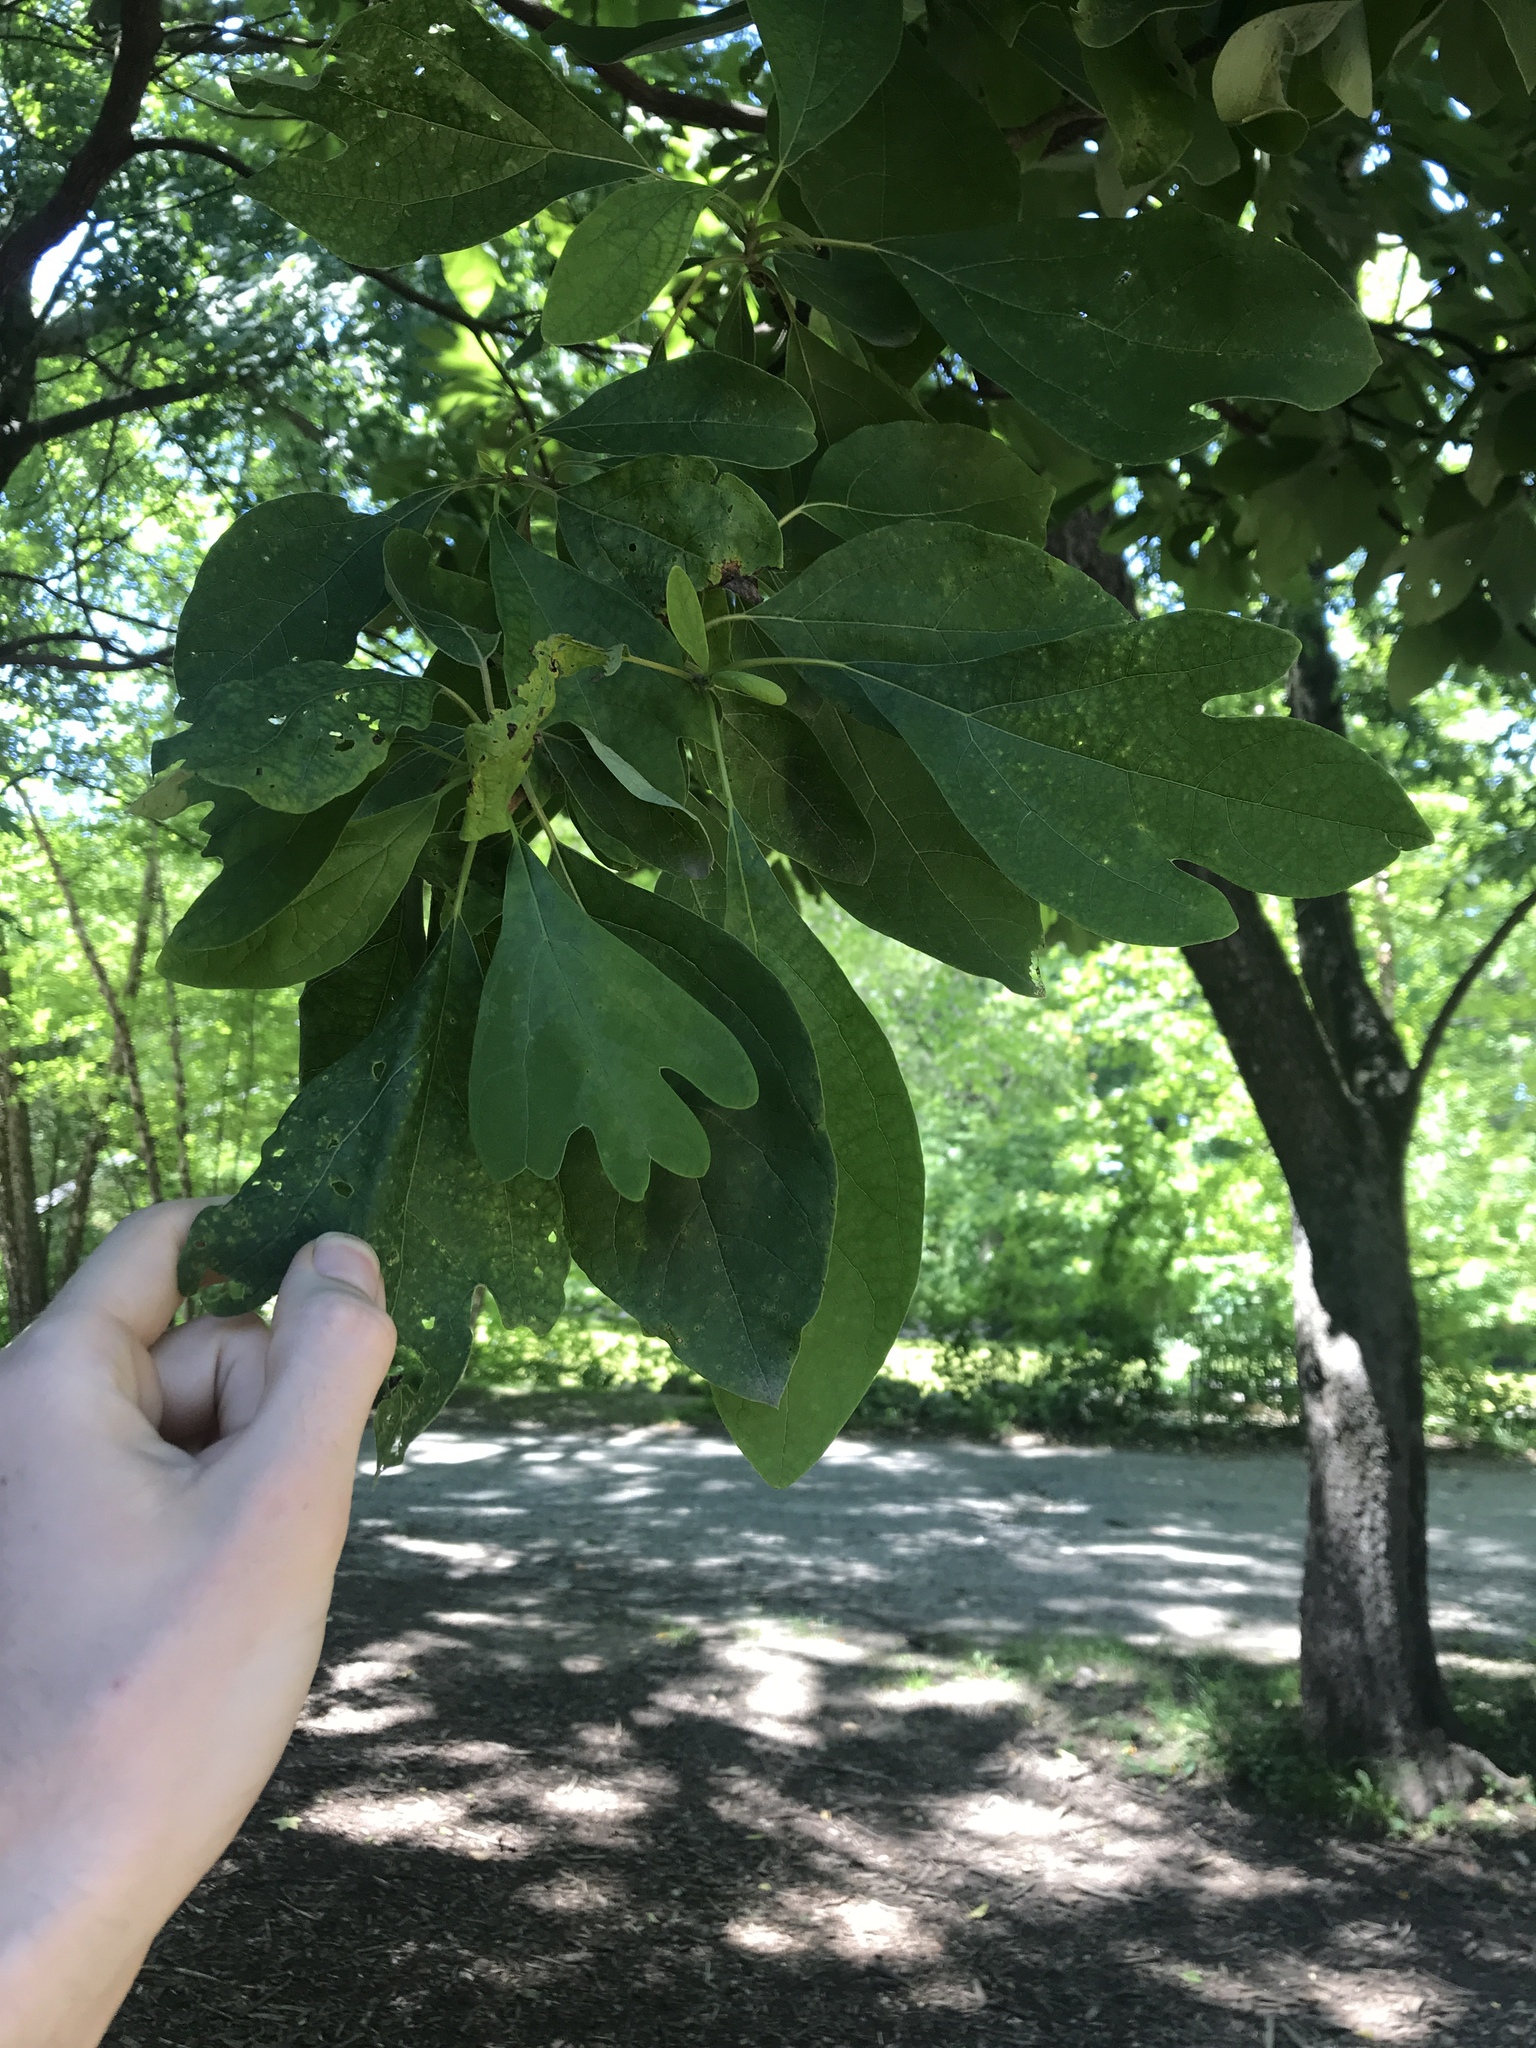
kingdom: Plantae
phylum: Tracheophyta
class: Magnoliopsida
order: Laurales
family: Lauraceae
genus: Sassafras
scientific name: Sassafras albidum
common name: Sassafras
